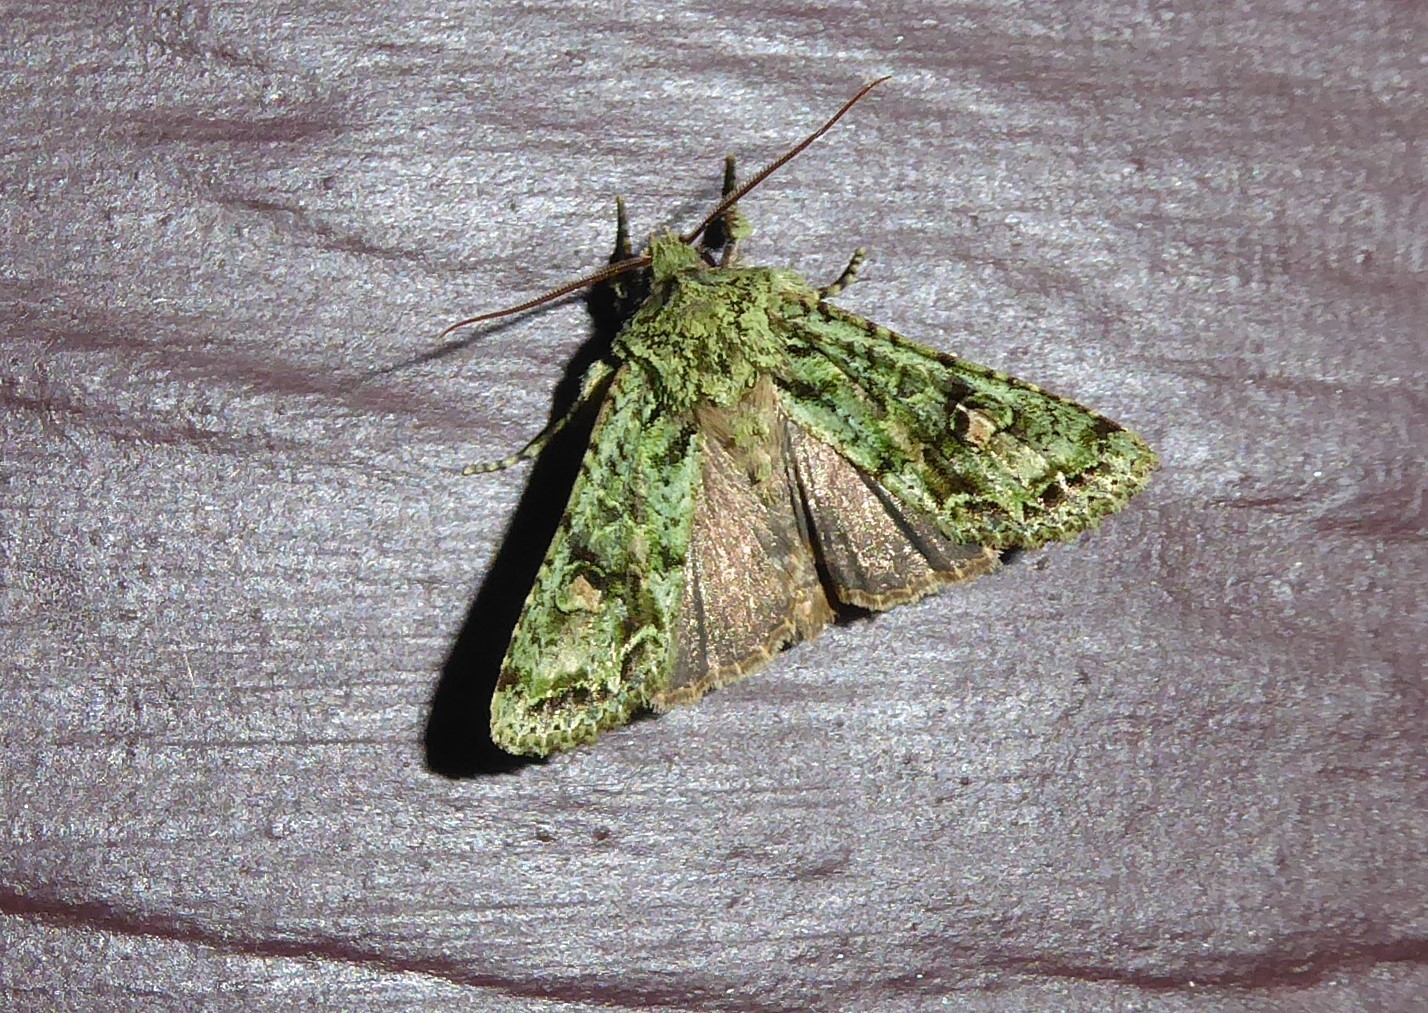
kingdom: Animalia
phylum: Arthropoda
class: Insecta
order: Lepidoptera
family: Noctuidae
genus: Ichneutica
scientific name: Ichneutica
